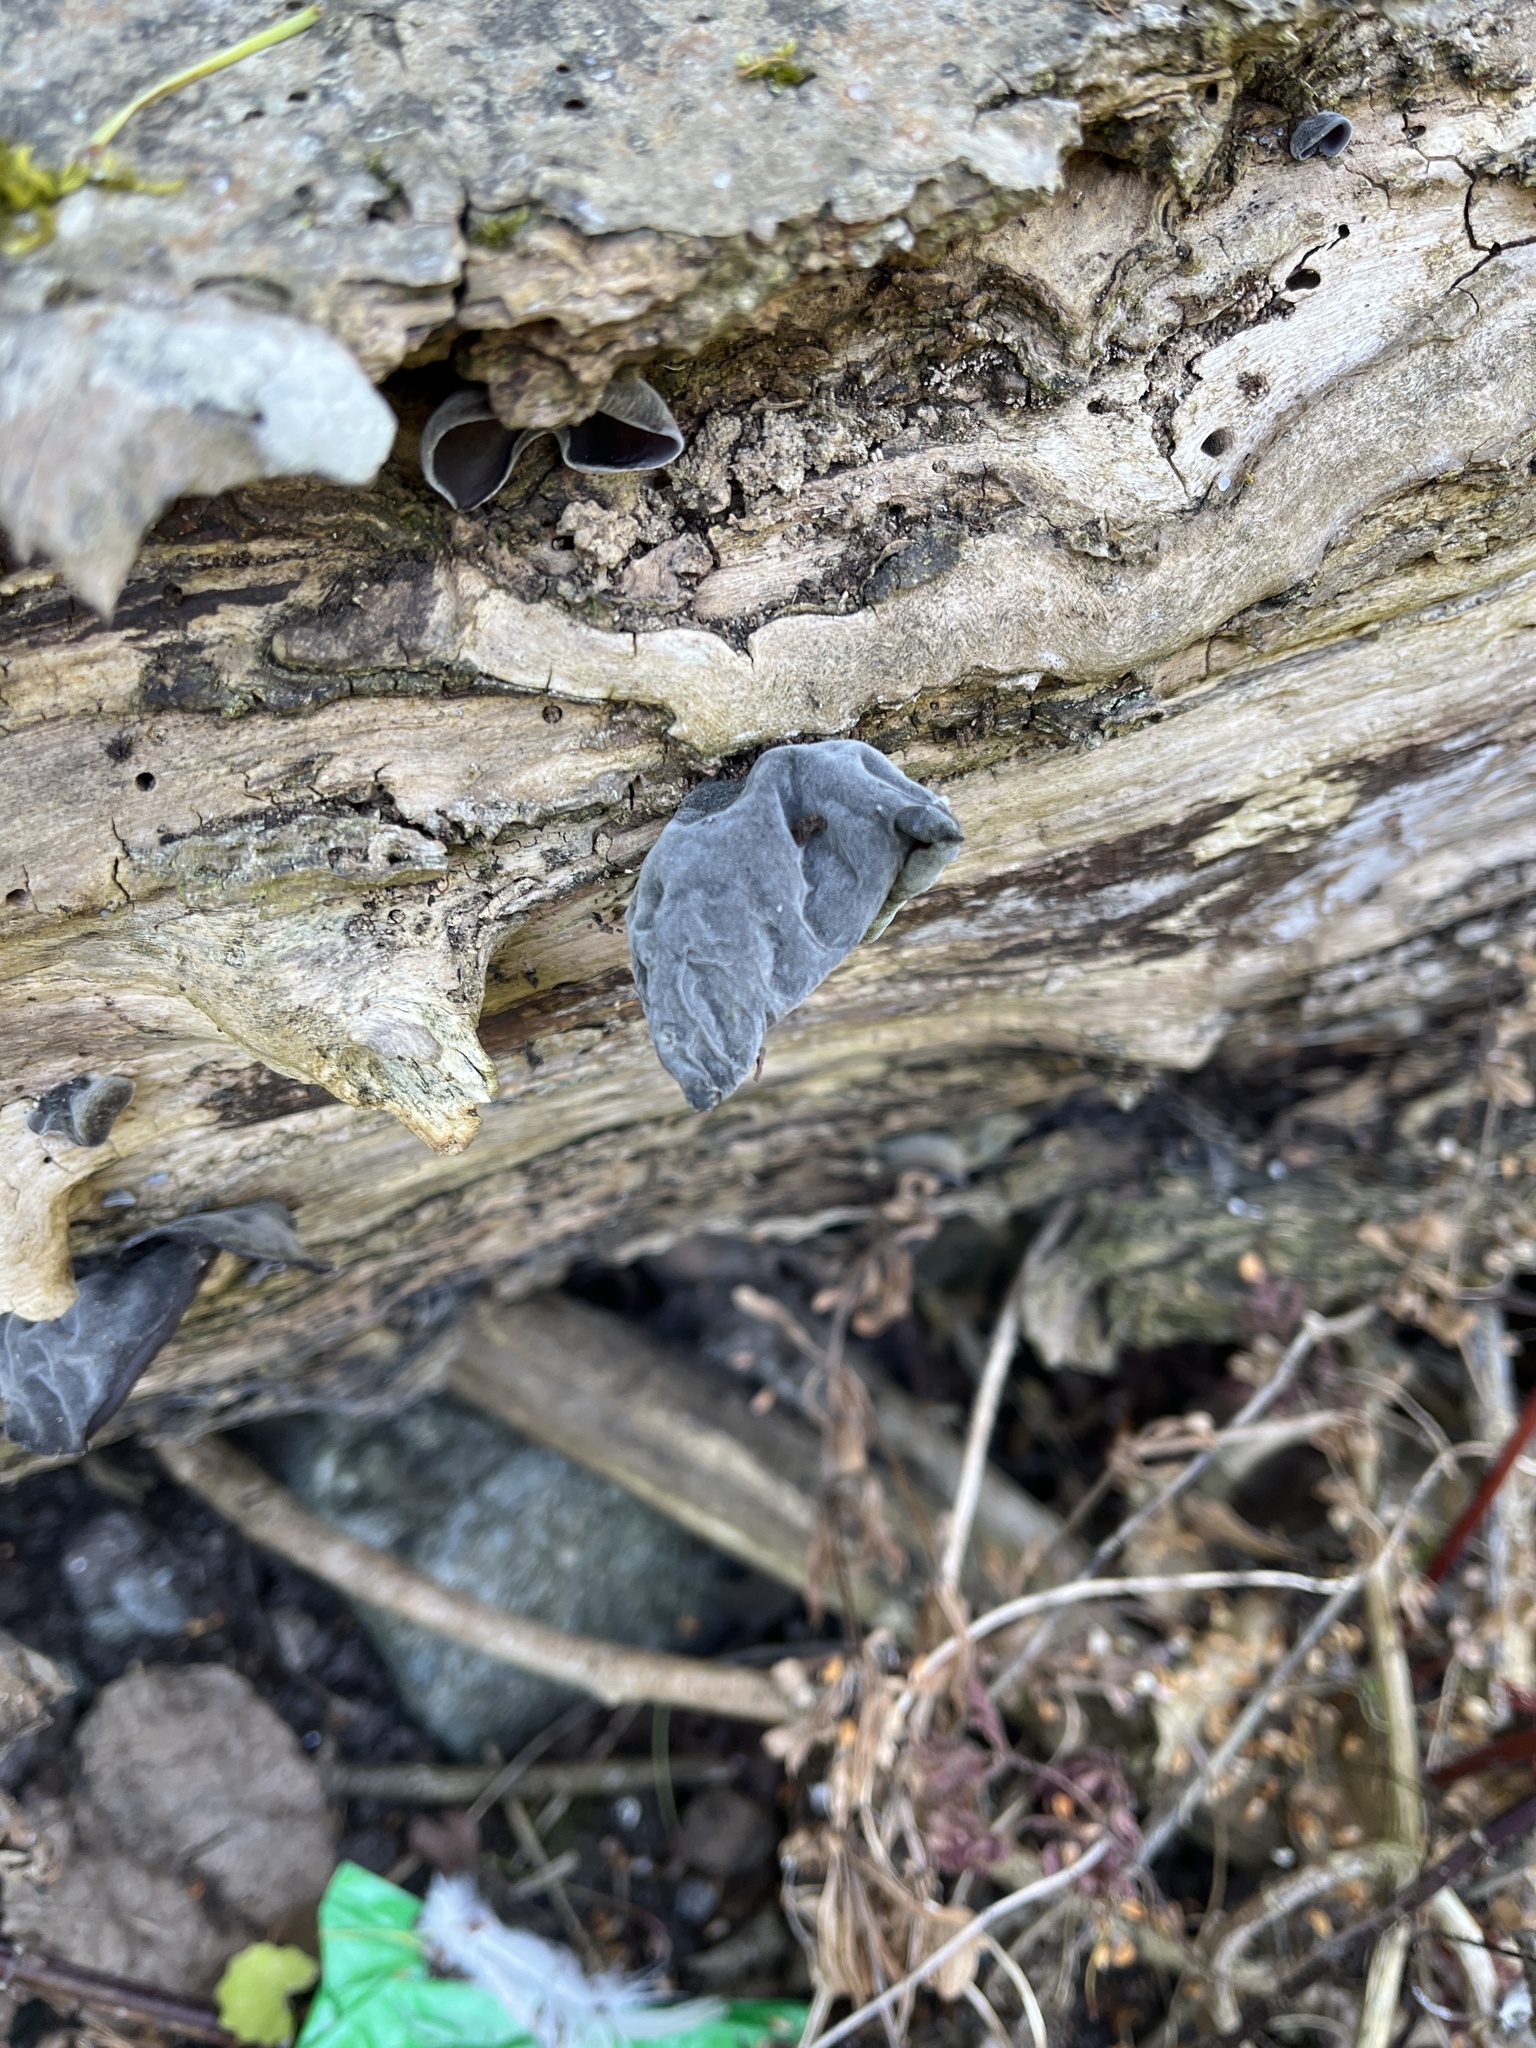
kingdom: Fungi
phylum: Basidiomycota
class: Agaricomycetes
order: Auriculariales
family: Auriculariaceae
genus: Auricularia
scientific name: Auricularia auricula-judae
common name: Jelly ear
